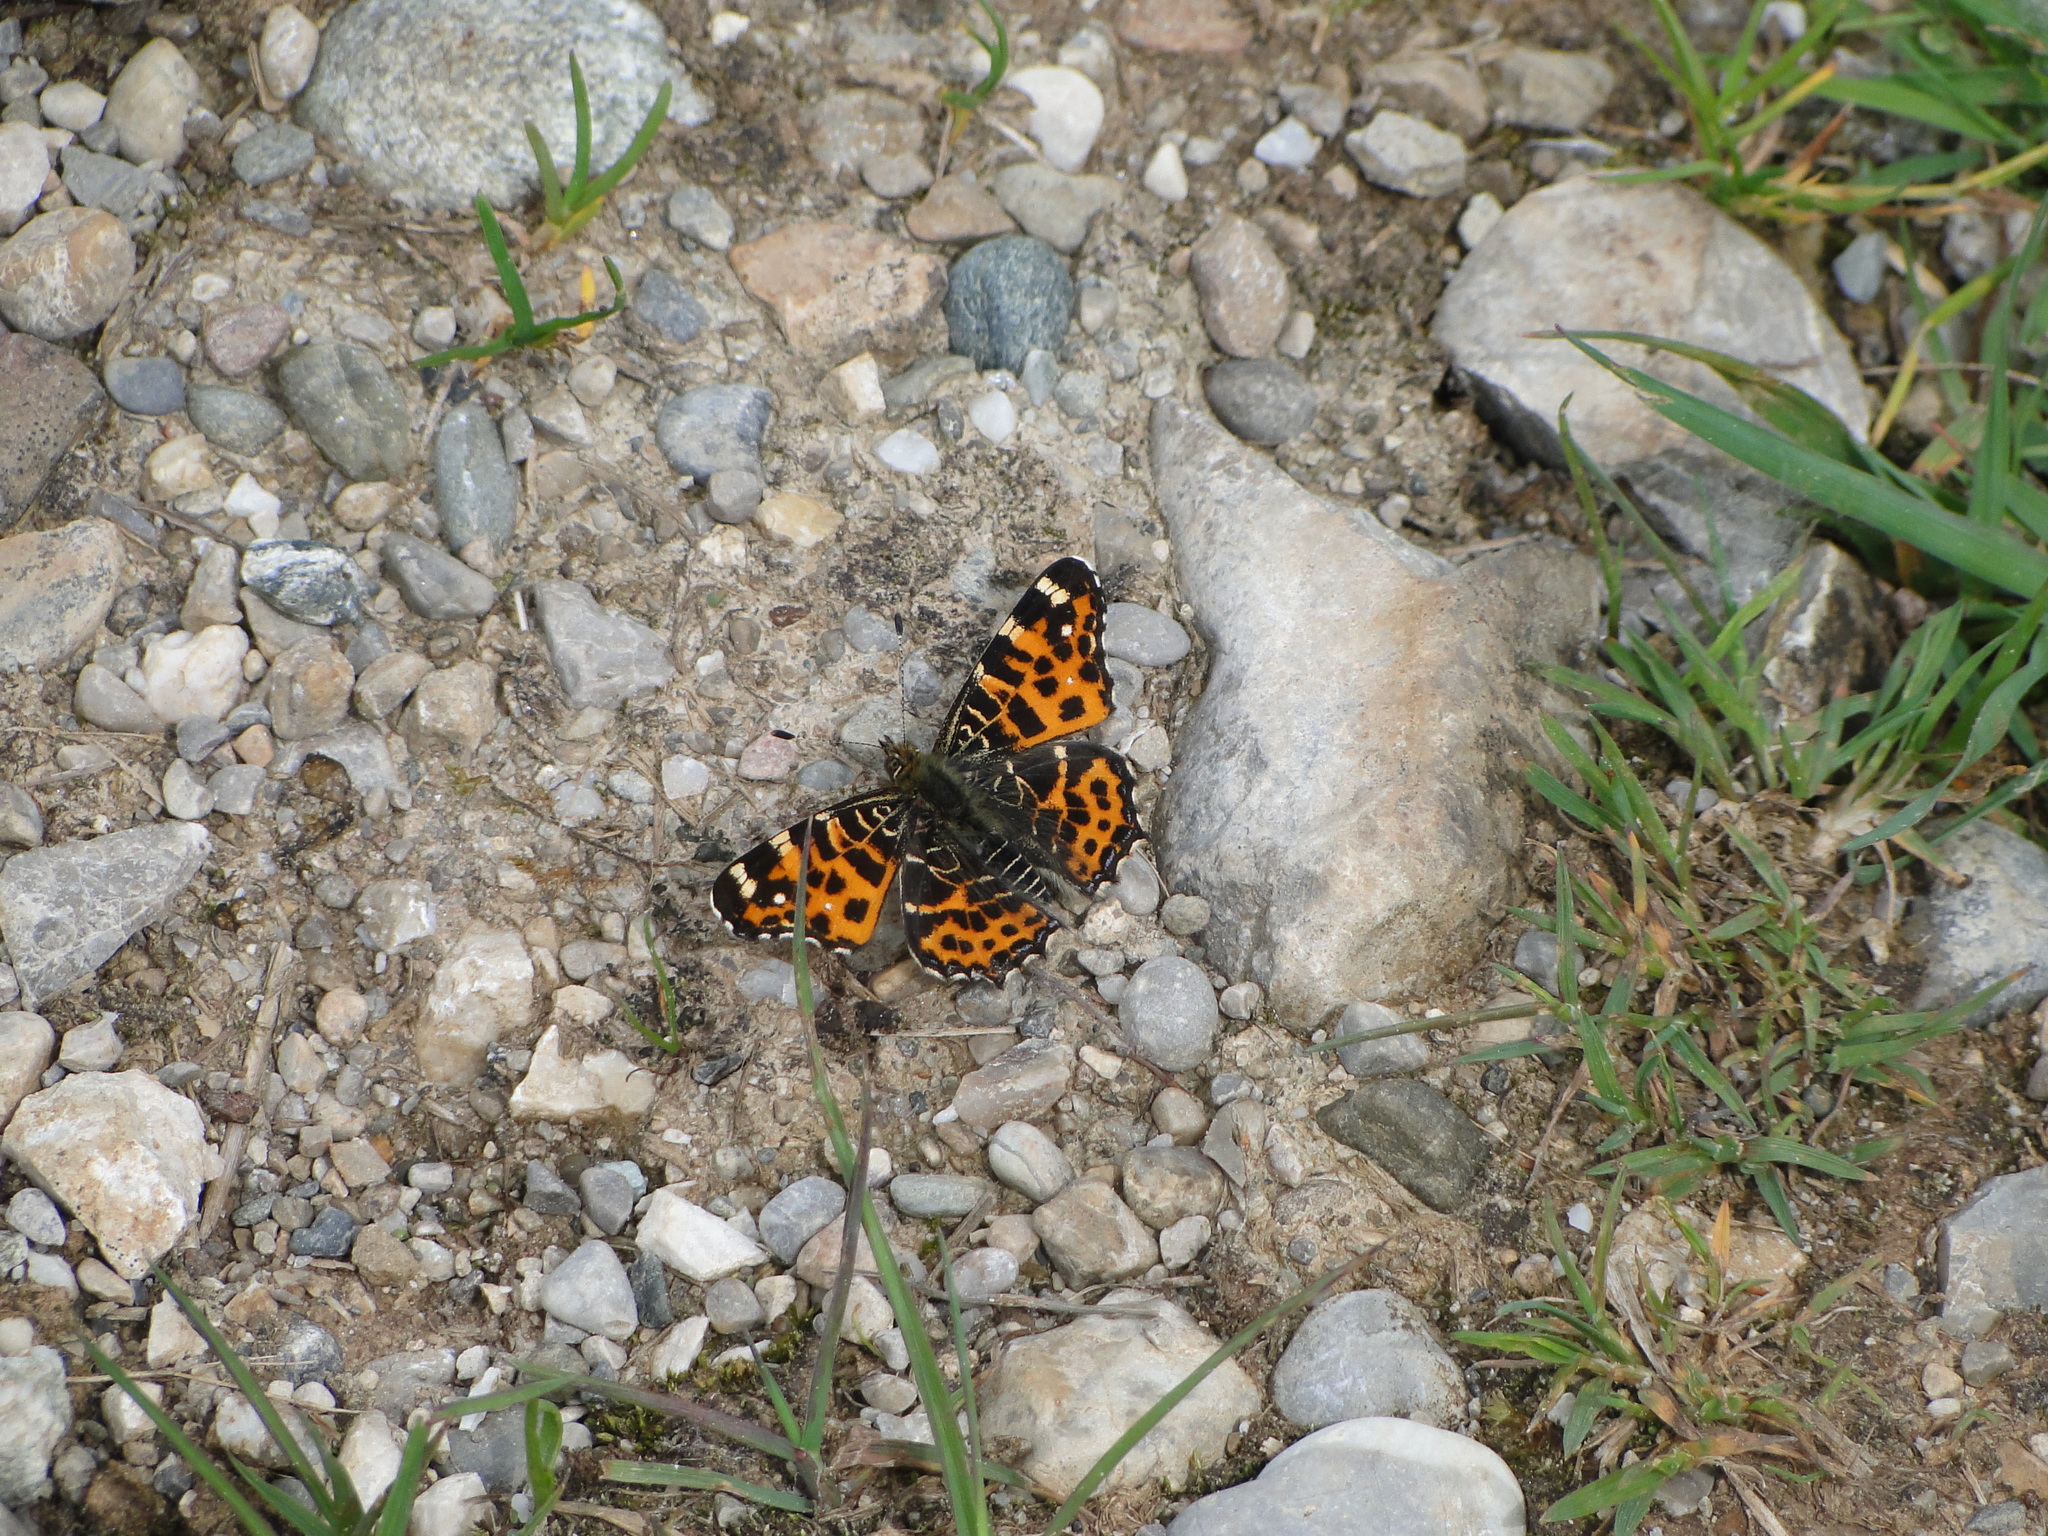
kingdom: Animalia
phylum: Arthropoda
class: Insecta
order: Lepidoptera
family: Nymphalidae
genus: Araschnia
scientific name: Araschnia levana
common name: Map butterfly
